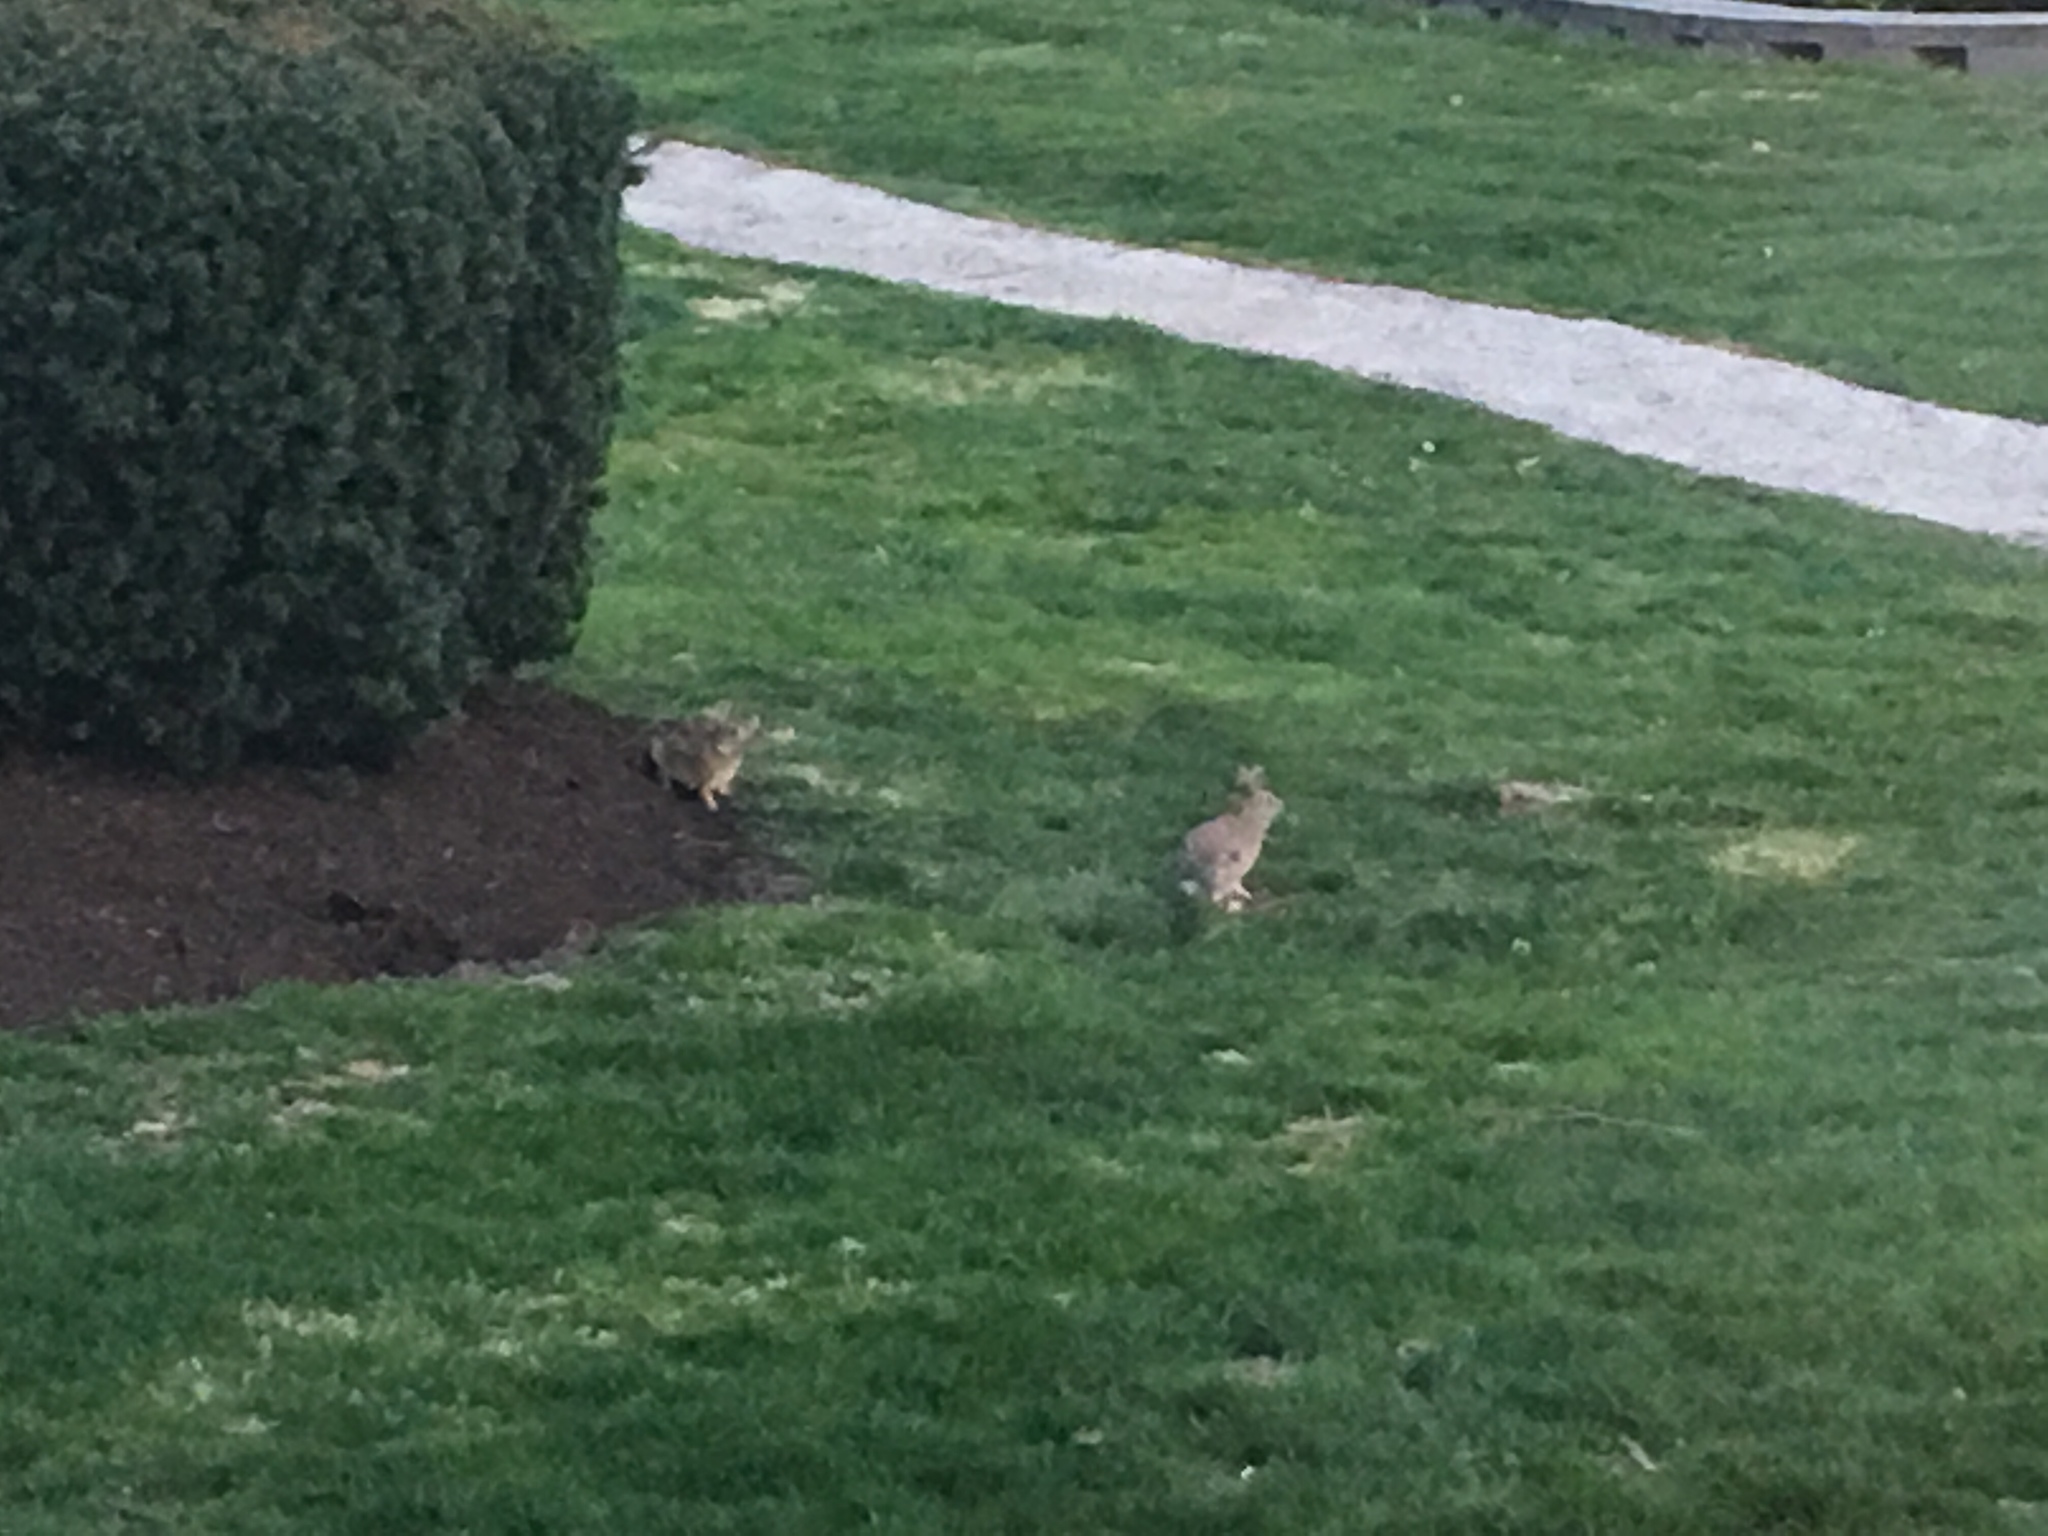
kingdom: Animalia
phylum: Chordata
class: Mammalia
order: Lagomorpha
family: Leporidae
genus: Sylvilagus
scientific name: Sylvilagus floridanus
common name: Eastern cottontail
